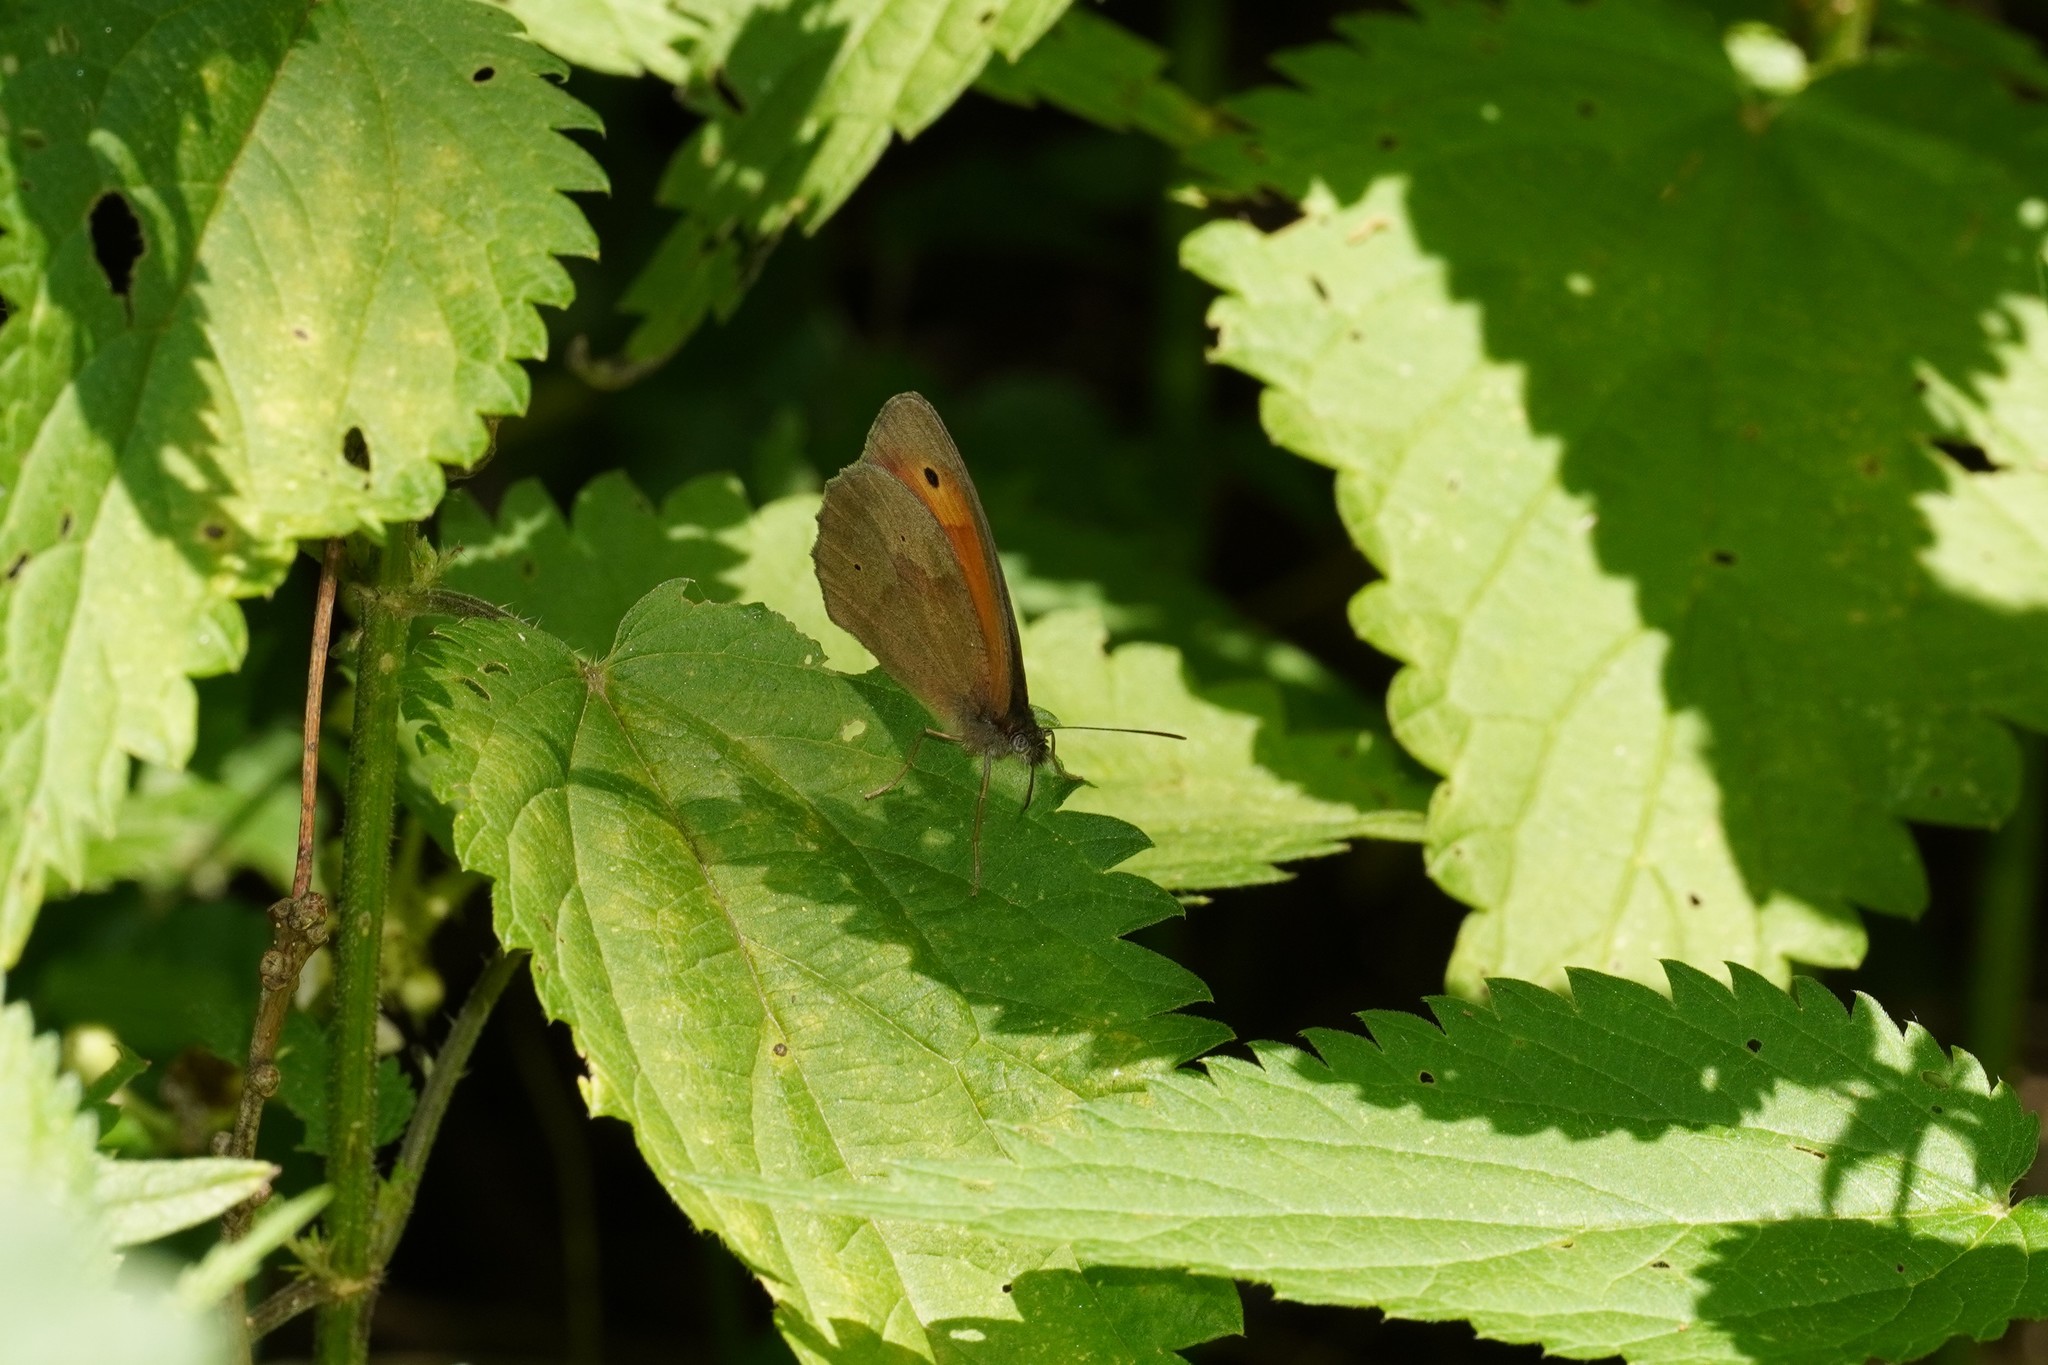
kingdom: Animalia
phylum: Arthropoda
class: Insecta
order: Lepidoptera
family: Nymphalidae
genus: Maniola
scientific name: Maniola jurtina
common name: Meadow brown
